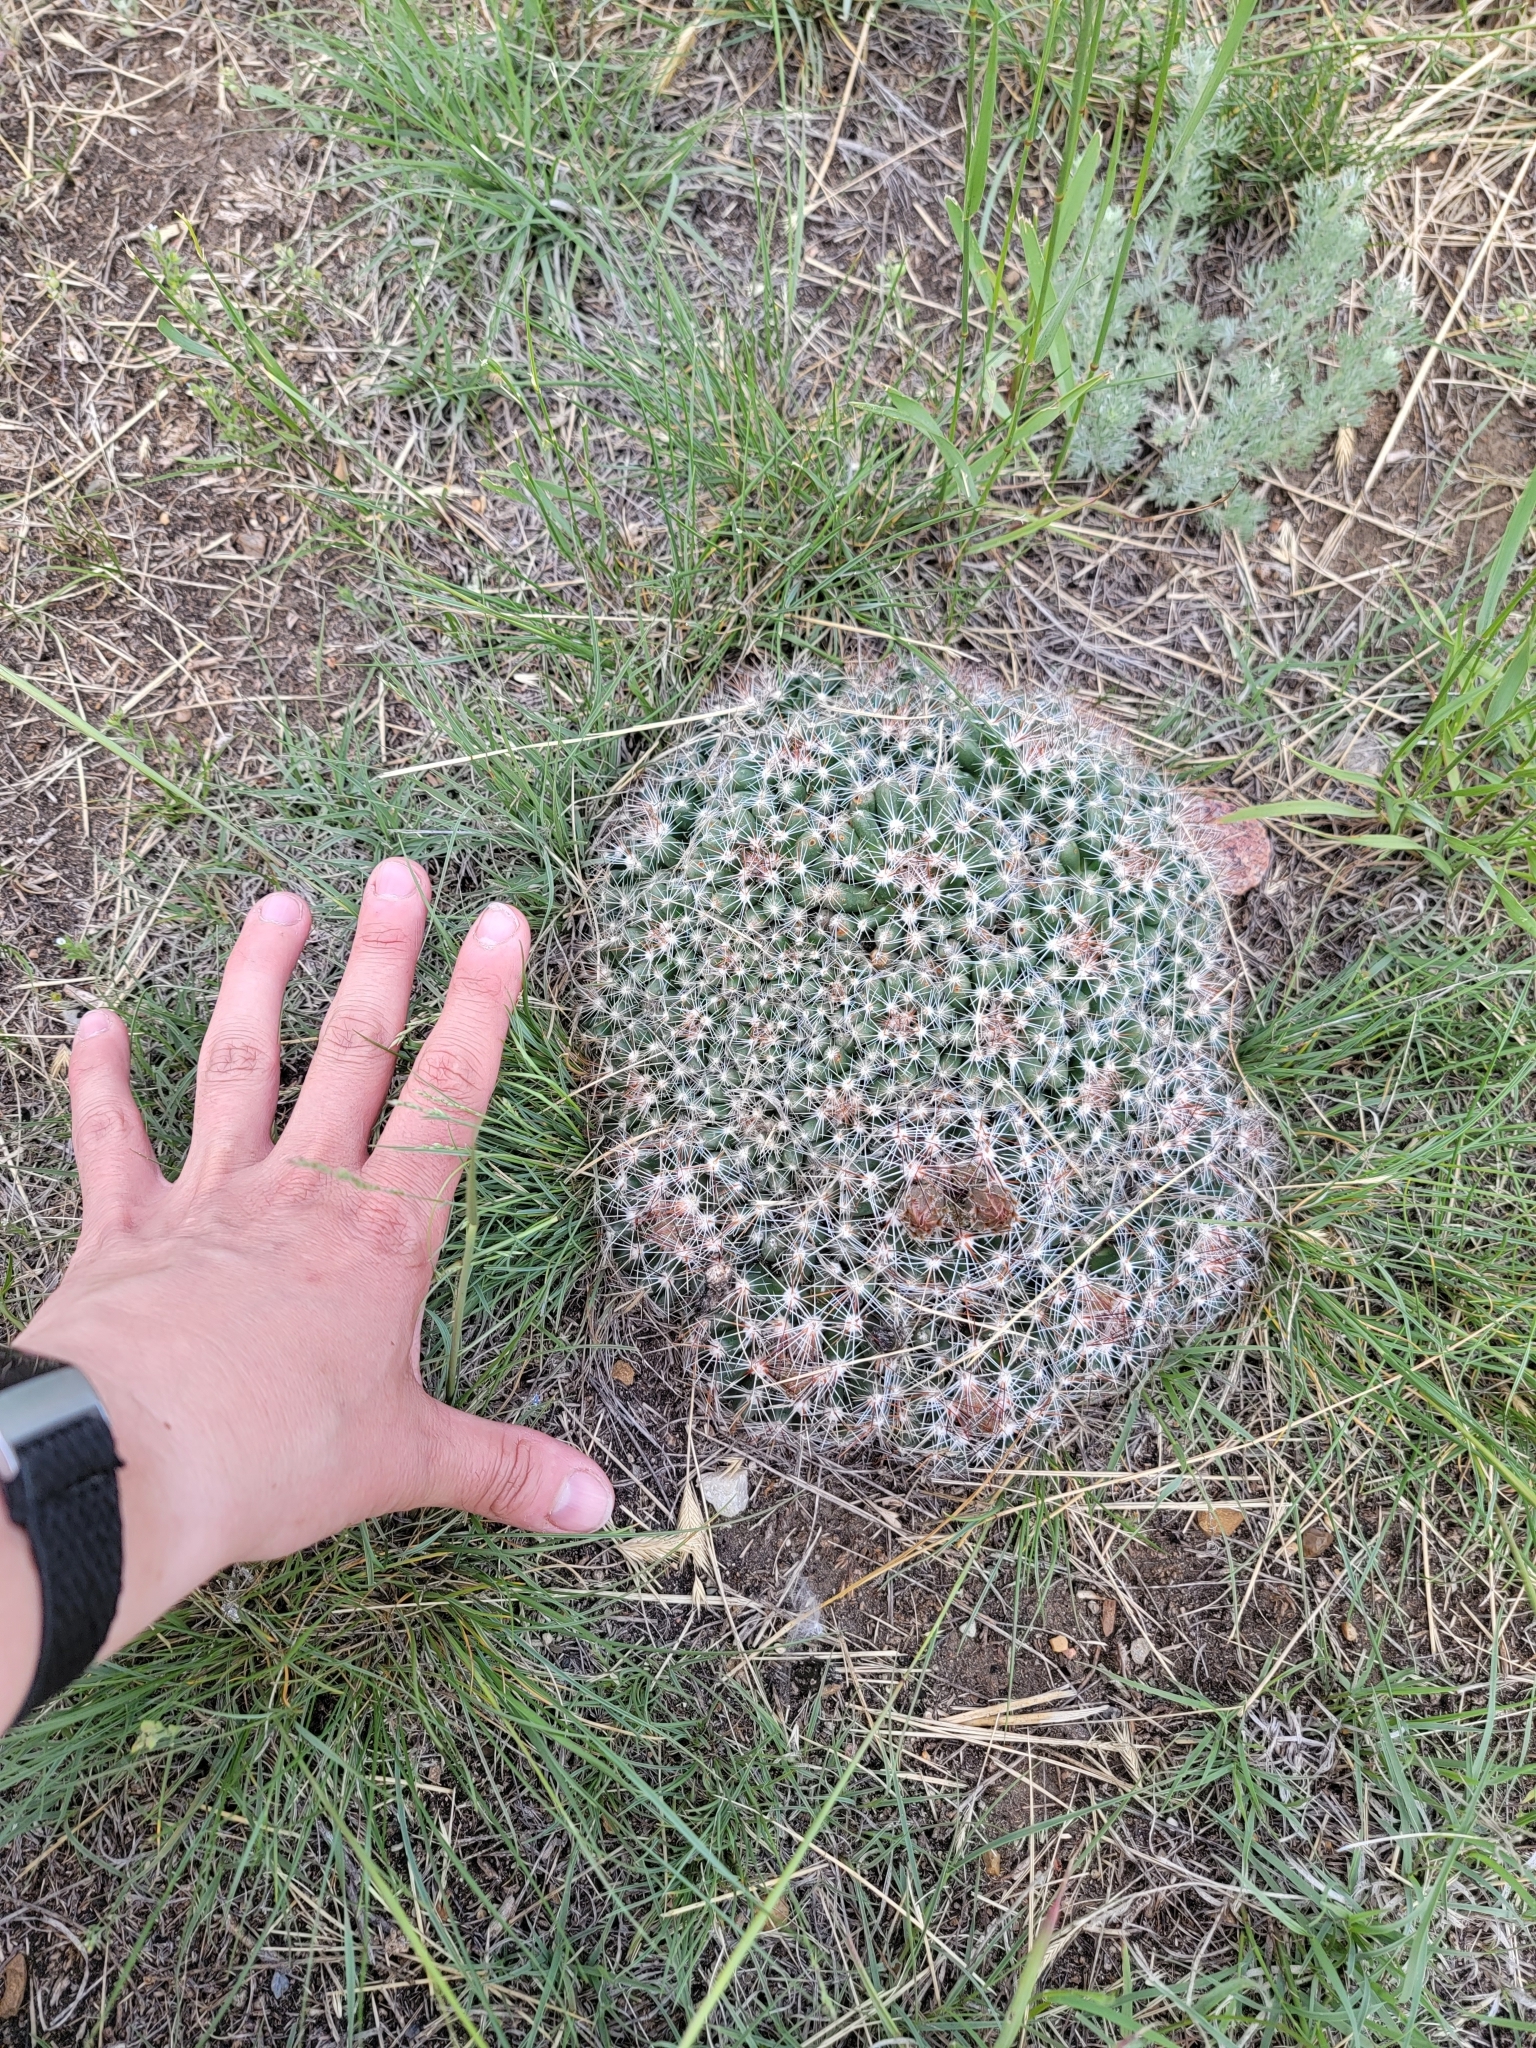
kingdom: Plantae
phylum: Tracheophyta
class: Magnoliopsida
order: Caryophyllales
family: Cactaceae
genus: Pelecyphora
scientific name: Pelecyphora vivipara
